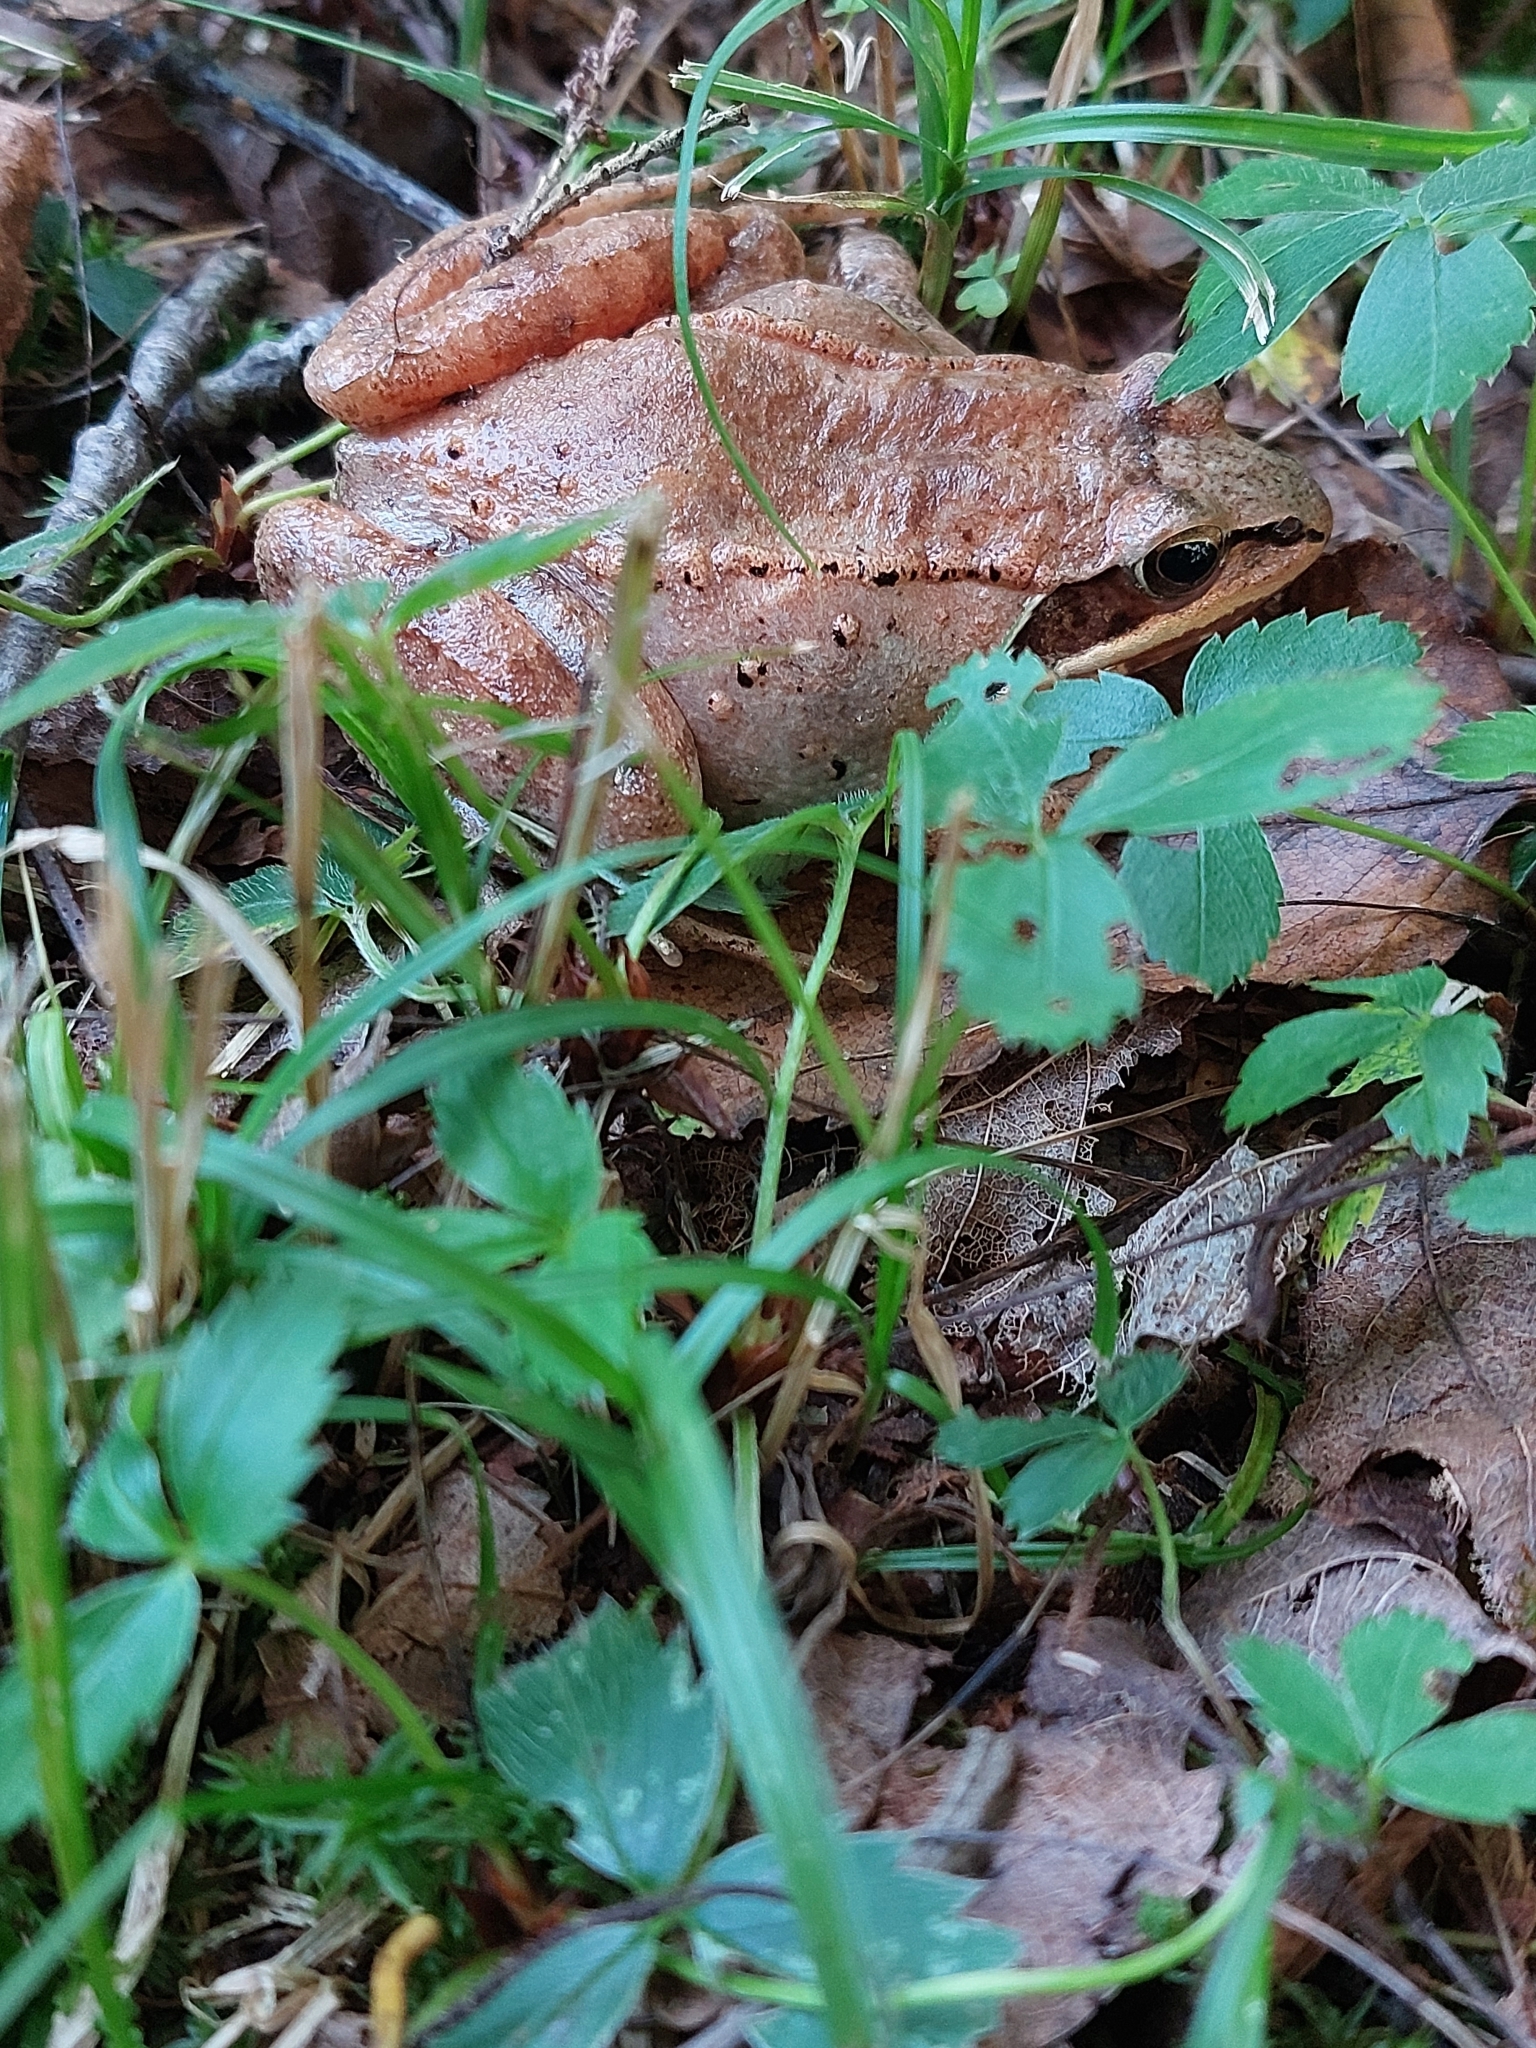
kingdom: Animalia
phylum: Chordata
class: Amphibia
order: Anura
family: Ranidae
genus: Lithobates
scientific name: Lithobates sylvaticus
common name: Wood frog
